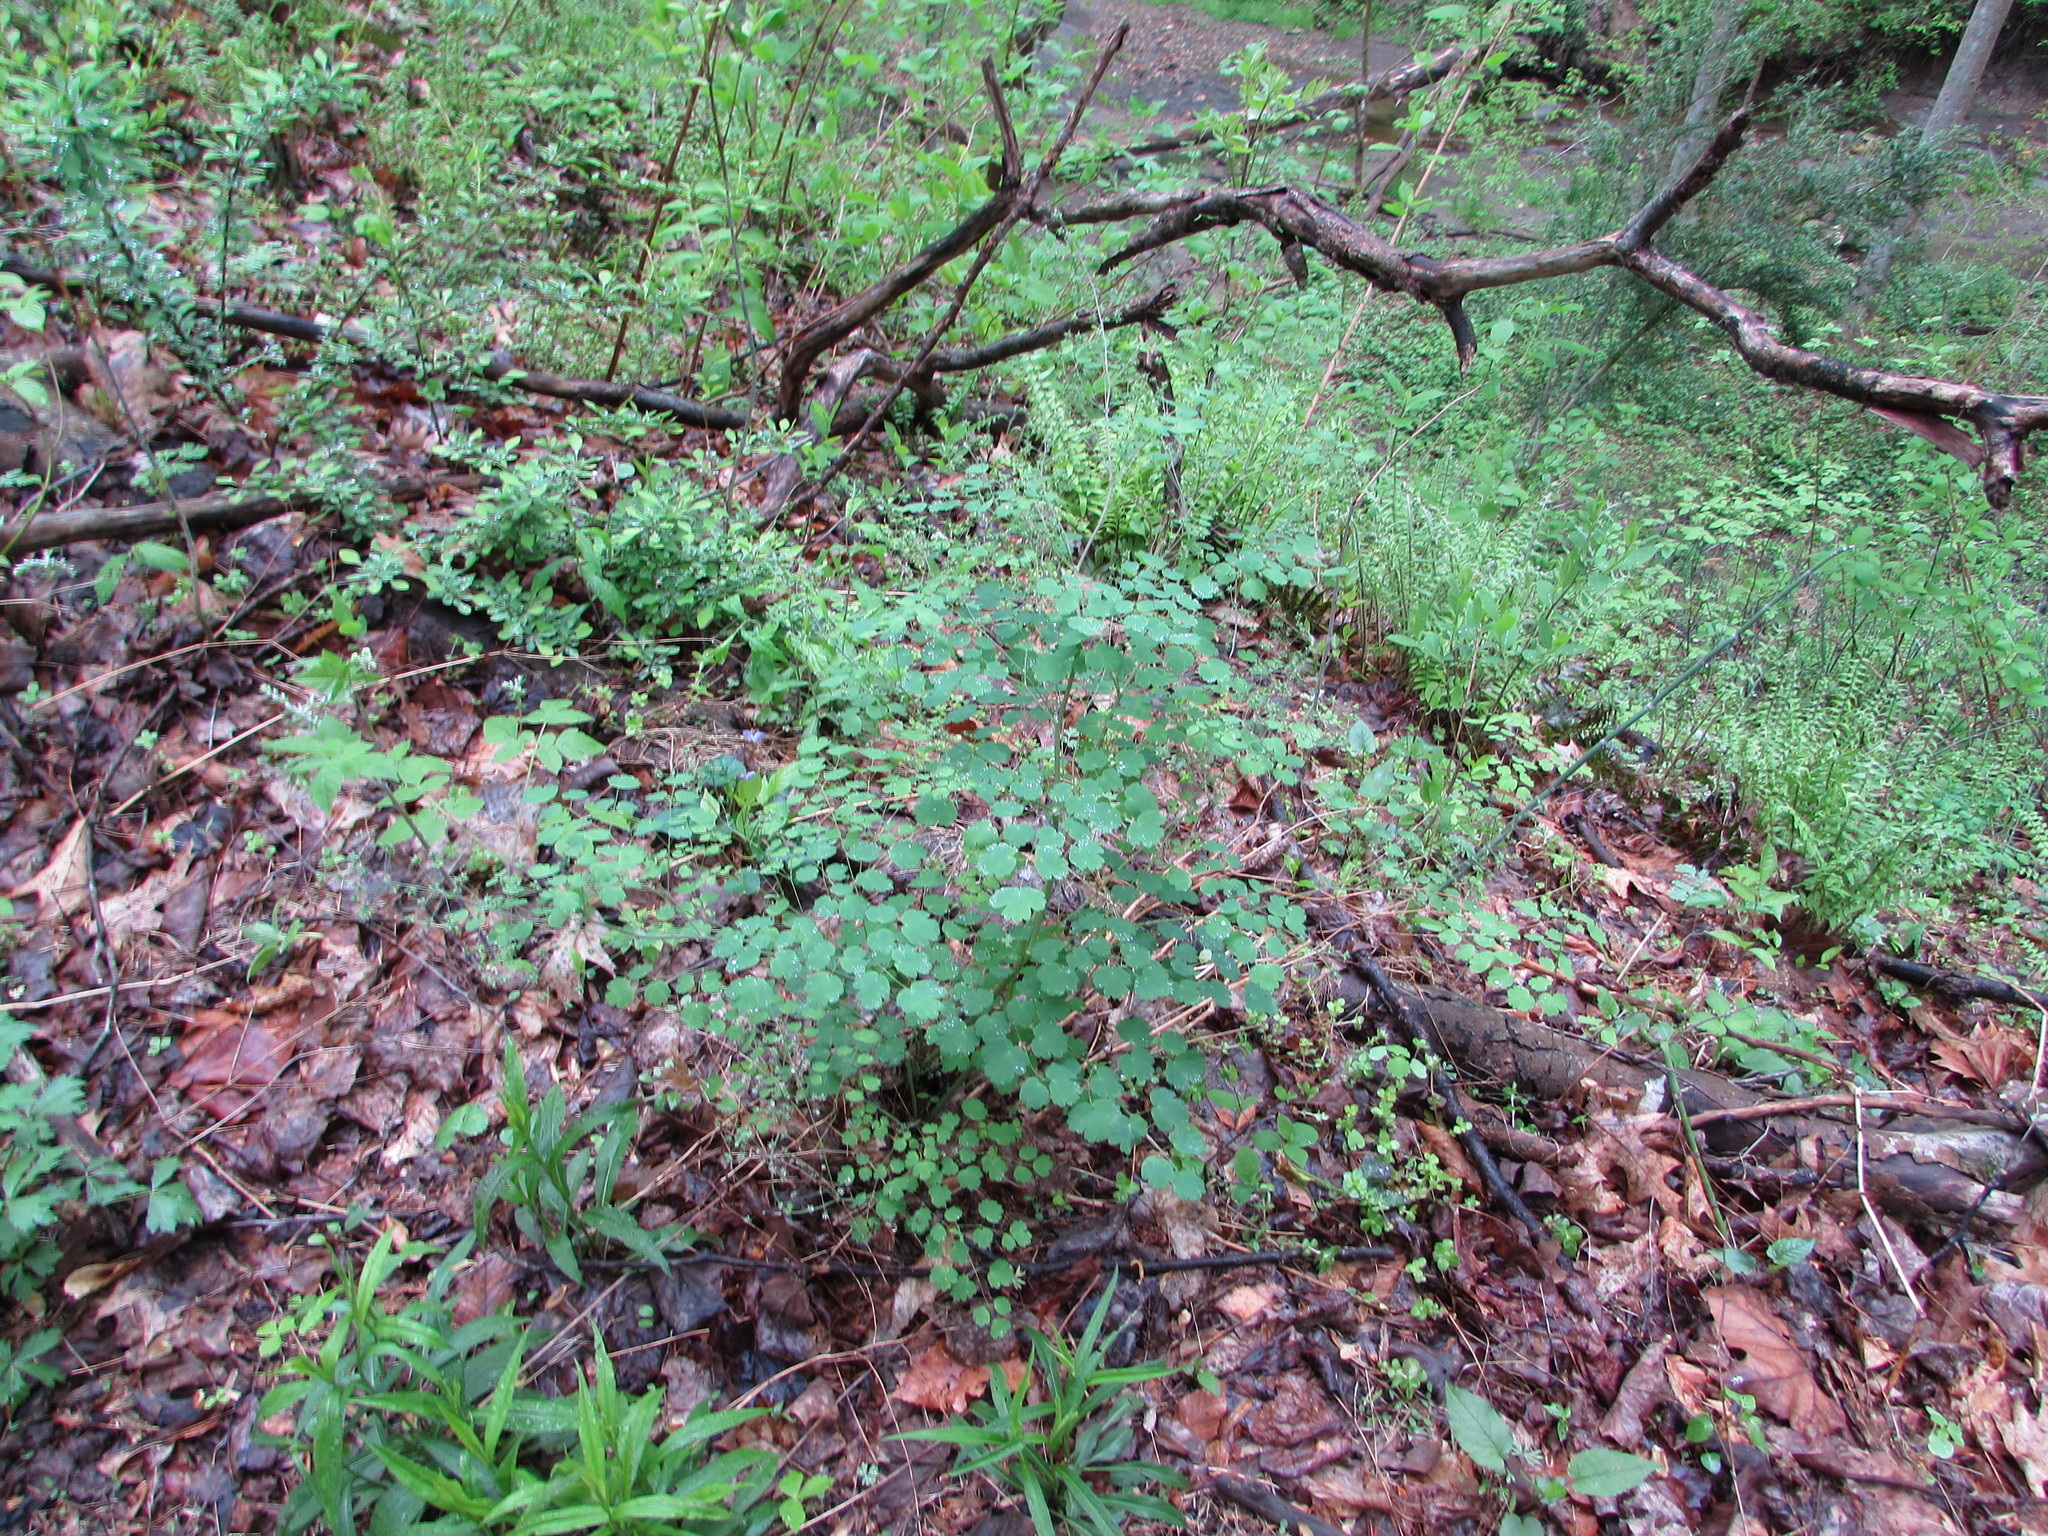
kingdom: Plantae
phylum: Tracheophyta
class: Magnoliopsida
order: Ranunculales
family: Ranunculaceae
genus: Thalictrum
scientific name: Thalictrum dioicum
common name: Early meadow-rue
